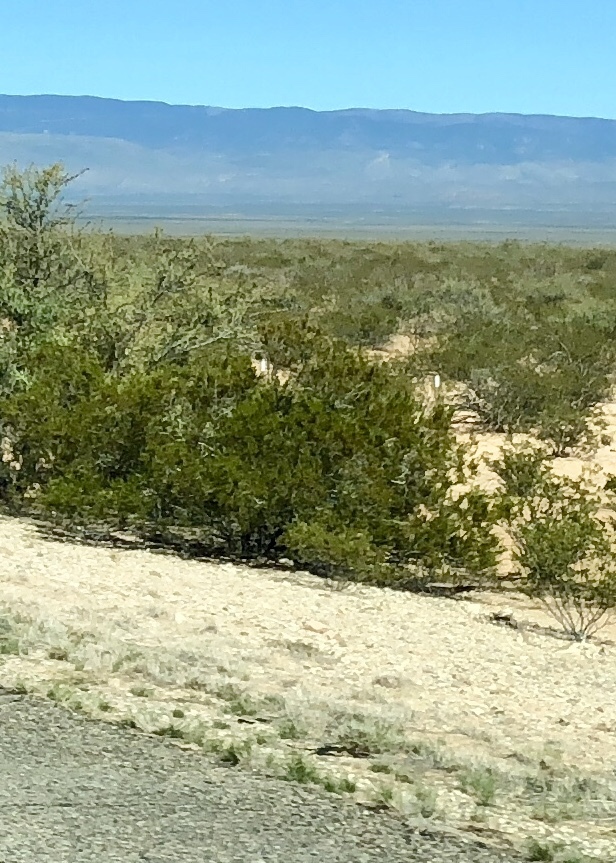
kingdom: Plantae
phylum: Tracheophyta
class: Magnoliopsida
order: Zygophyllales
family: Zygophyllaceae
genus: Larrea
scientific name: Larrea tridentata
